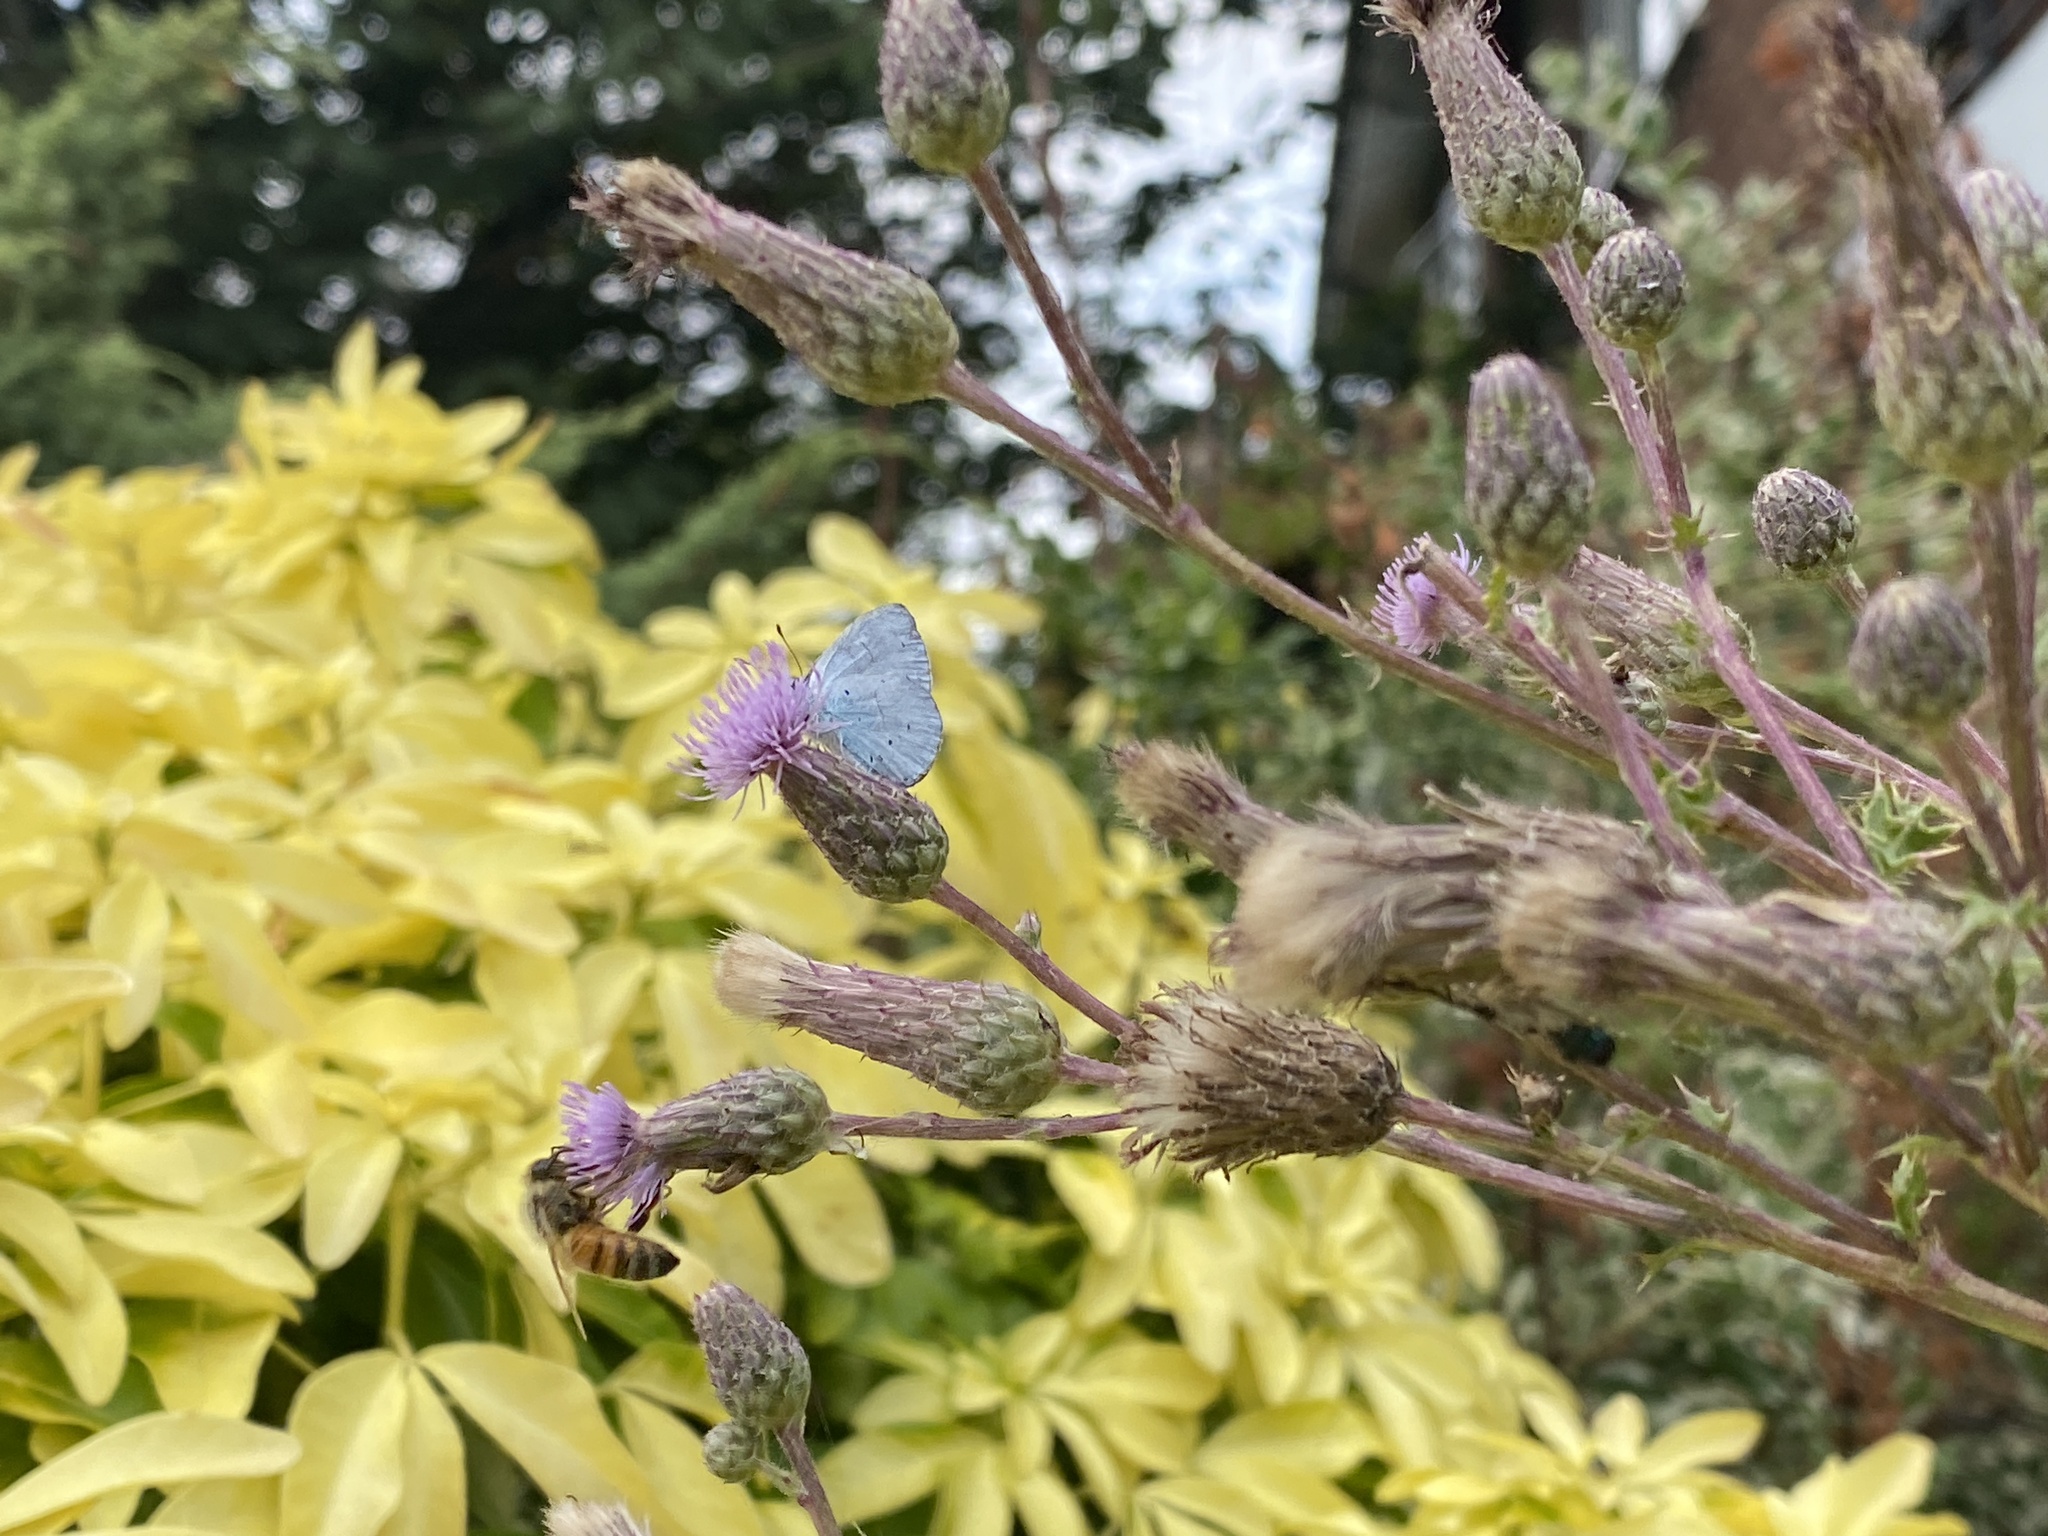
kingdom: Animalia
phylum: Arthropoda
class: Insecta
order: Lepidoptera
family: Lycaenidae
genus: Celastrina
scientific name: Celastrina argiolus
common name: Holly blue
